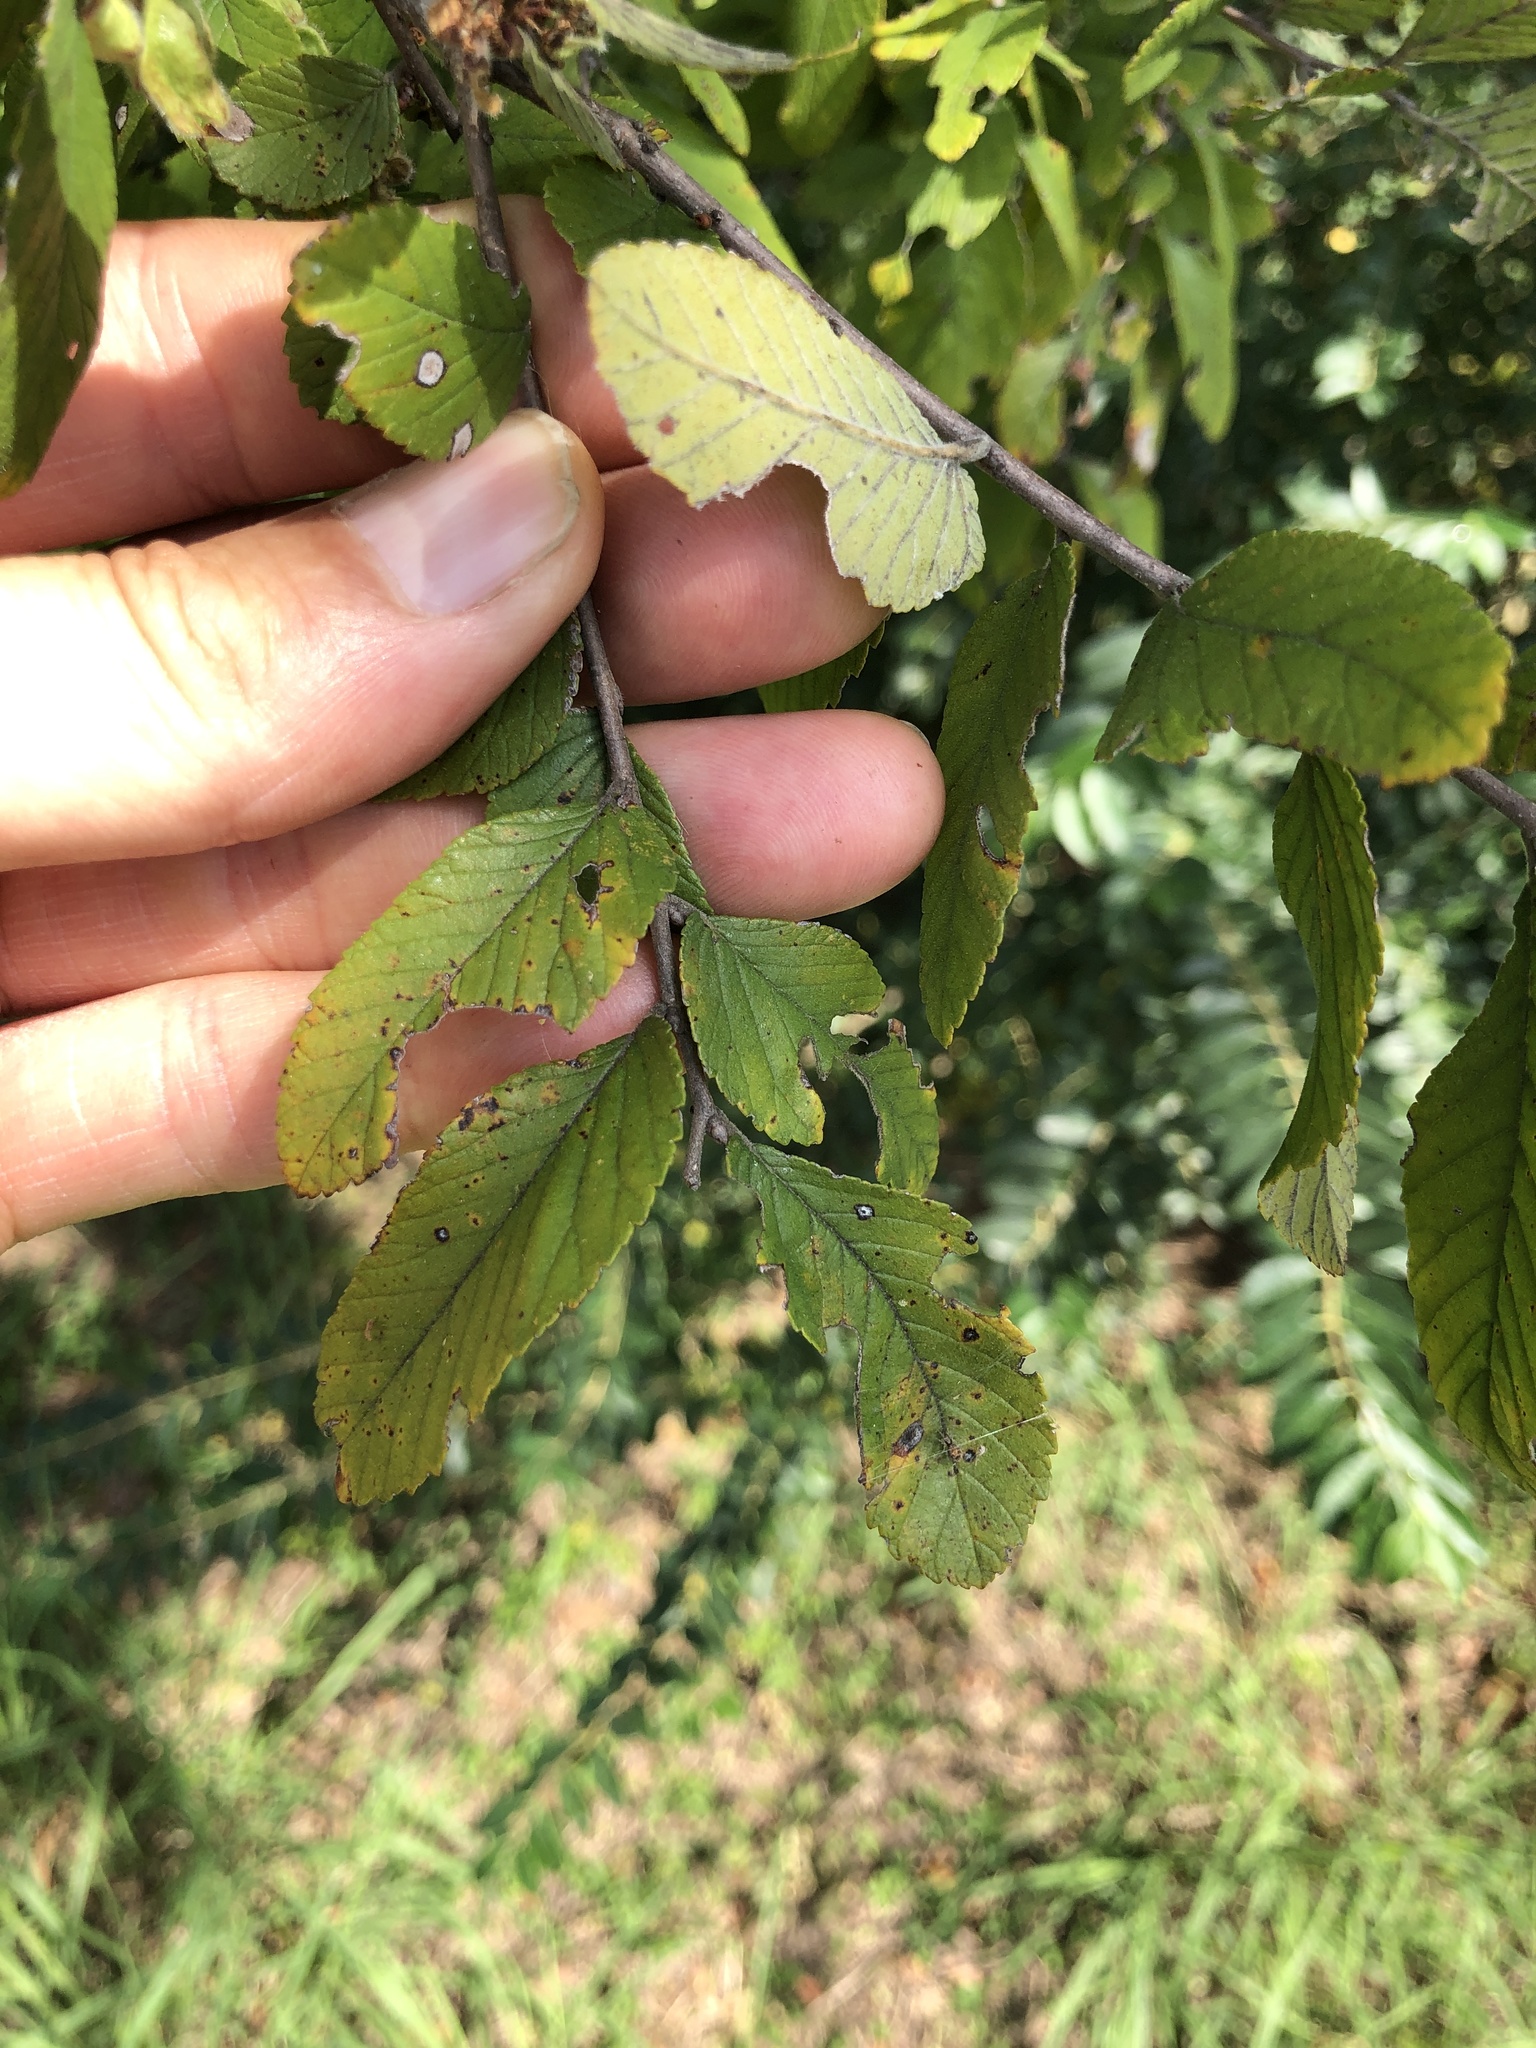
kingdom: Plantae
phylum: Tracheophyta
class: Magnoliopsida
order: Rosales
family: Ulmaceae
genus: Ulmus
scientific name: Ulmus crassifolia
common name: Basket elm
